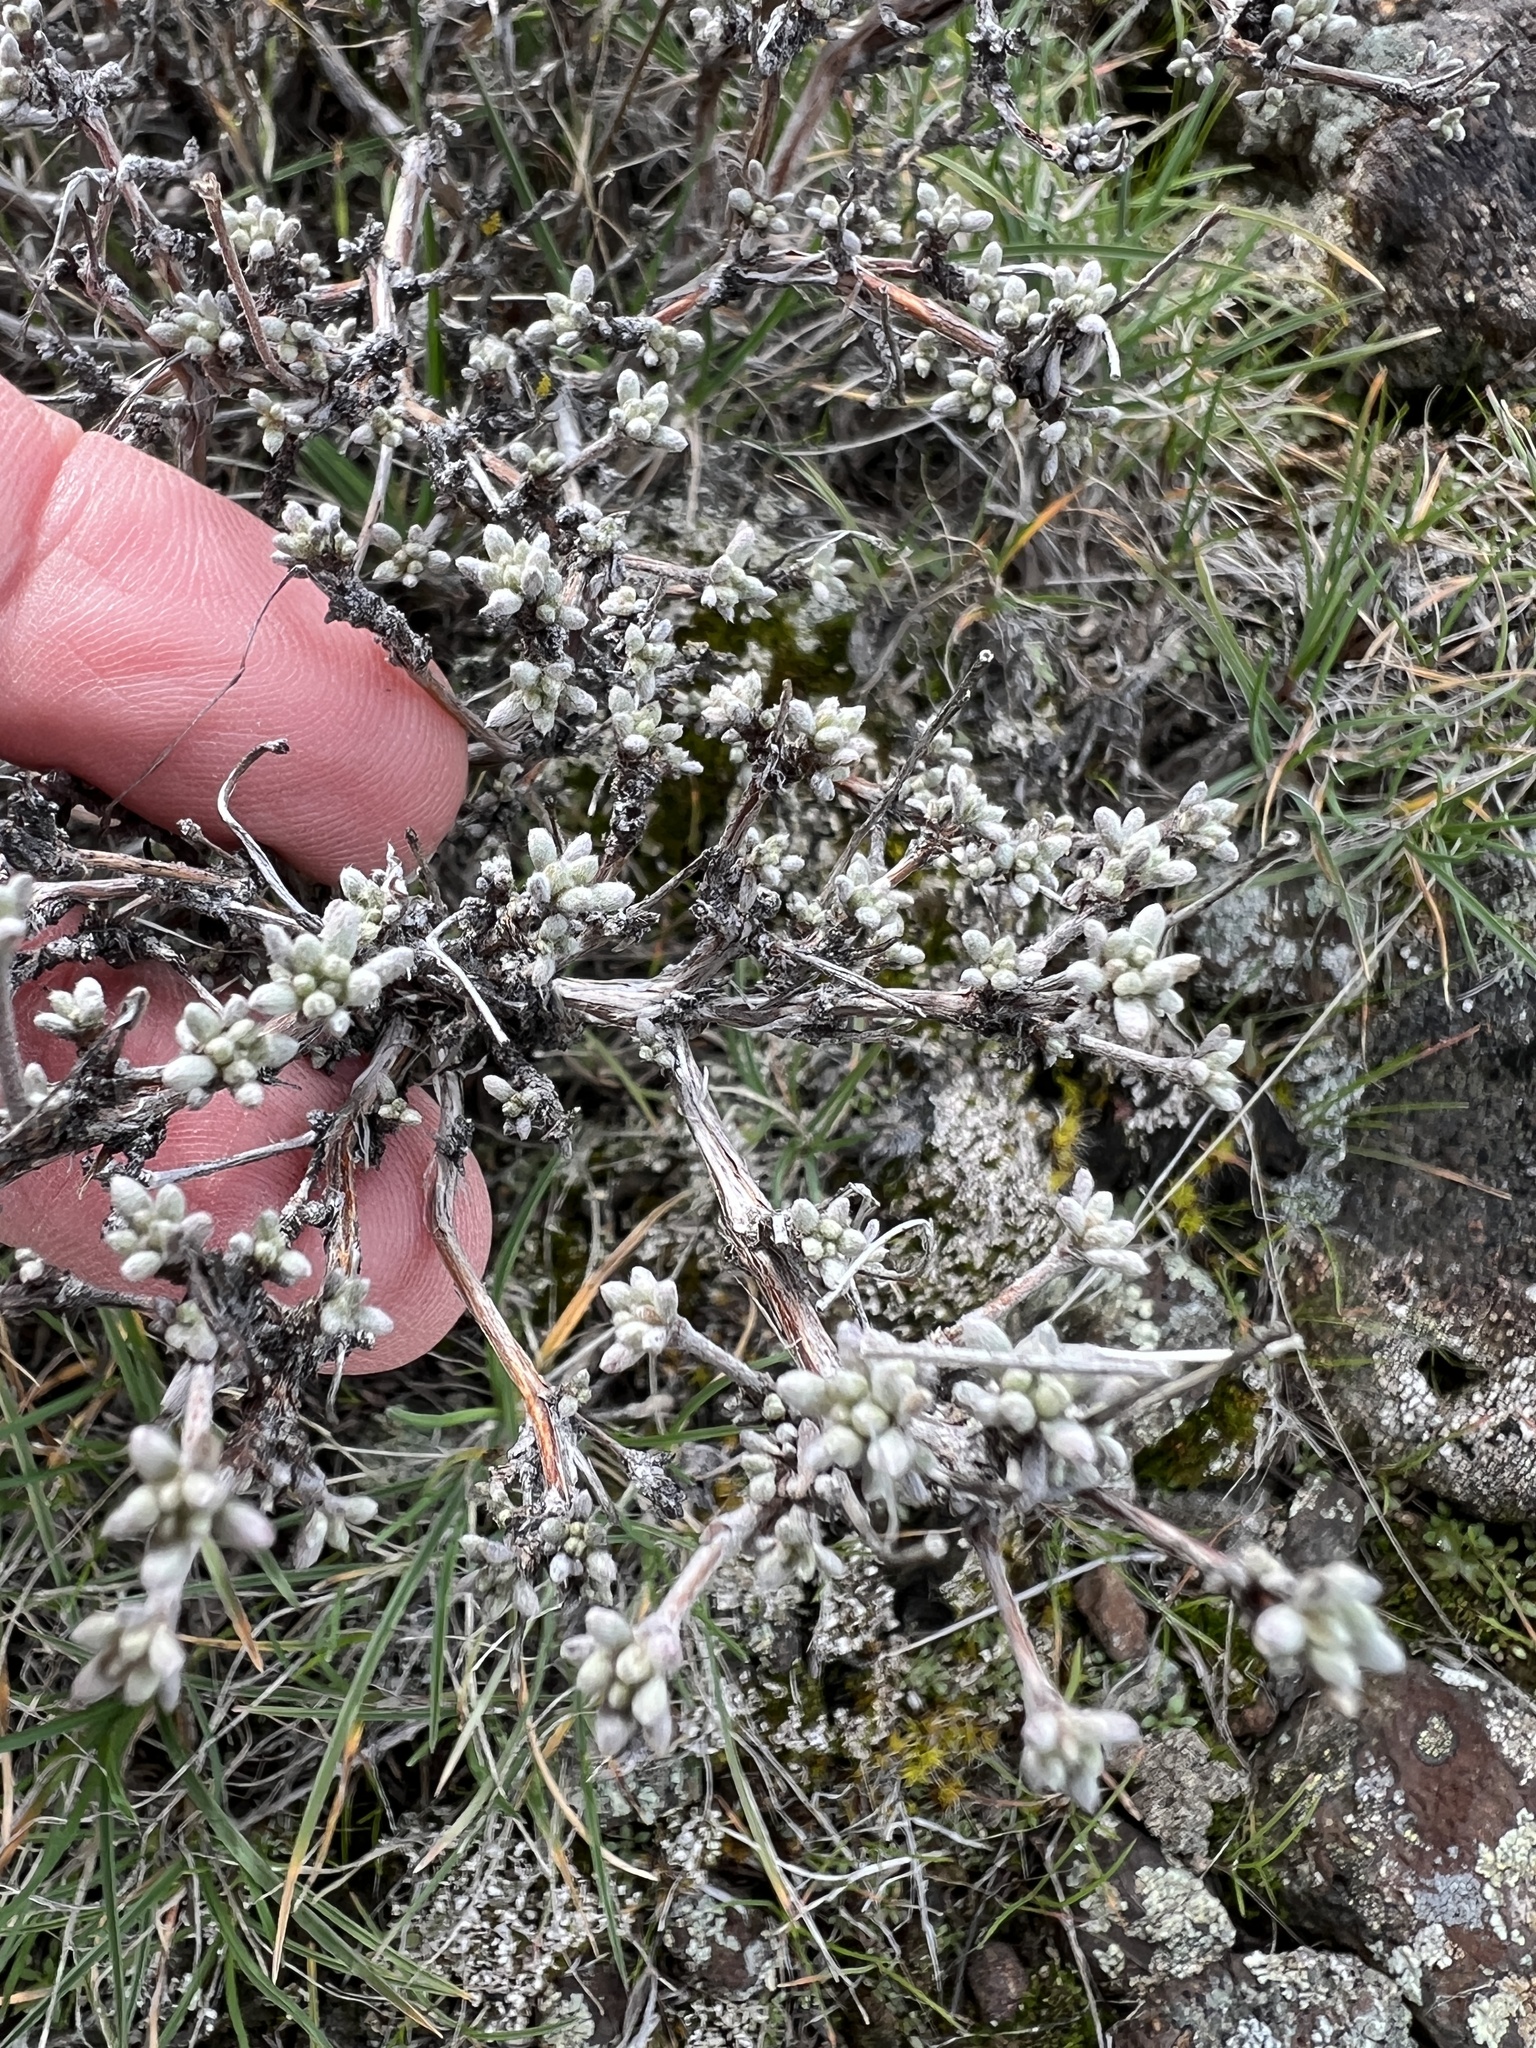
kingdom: Plantae
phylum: Tracheophyta
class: Magnoliopsida
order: Caryophyllales
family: Polygonaceae
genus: Eriogonum
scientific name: Eriogonum thymoides
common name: Thyme-leaf wild buckwheat
